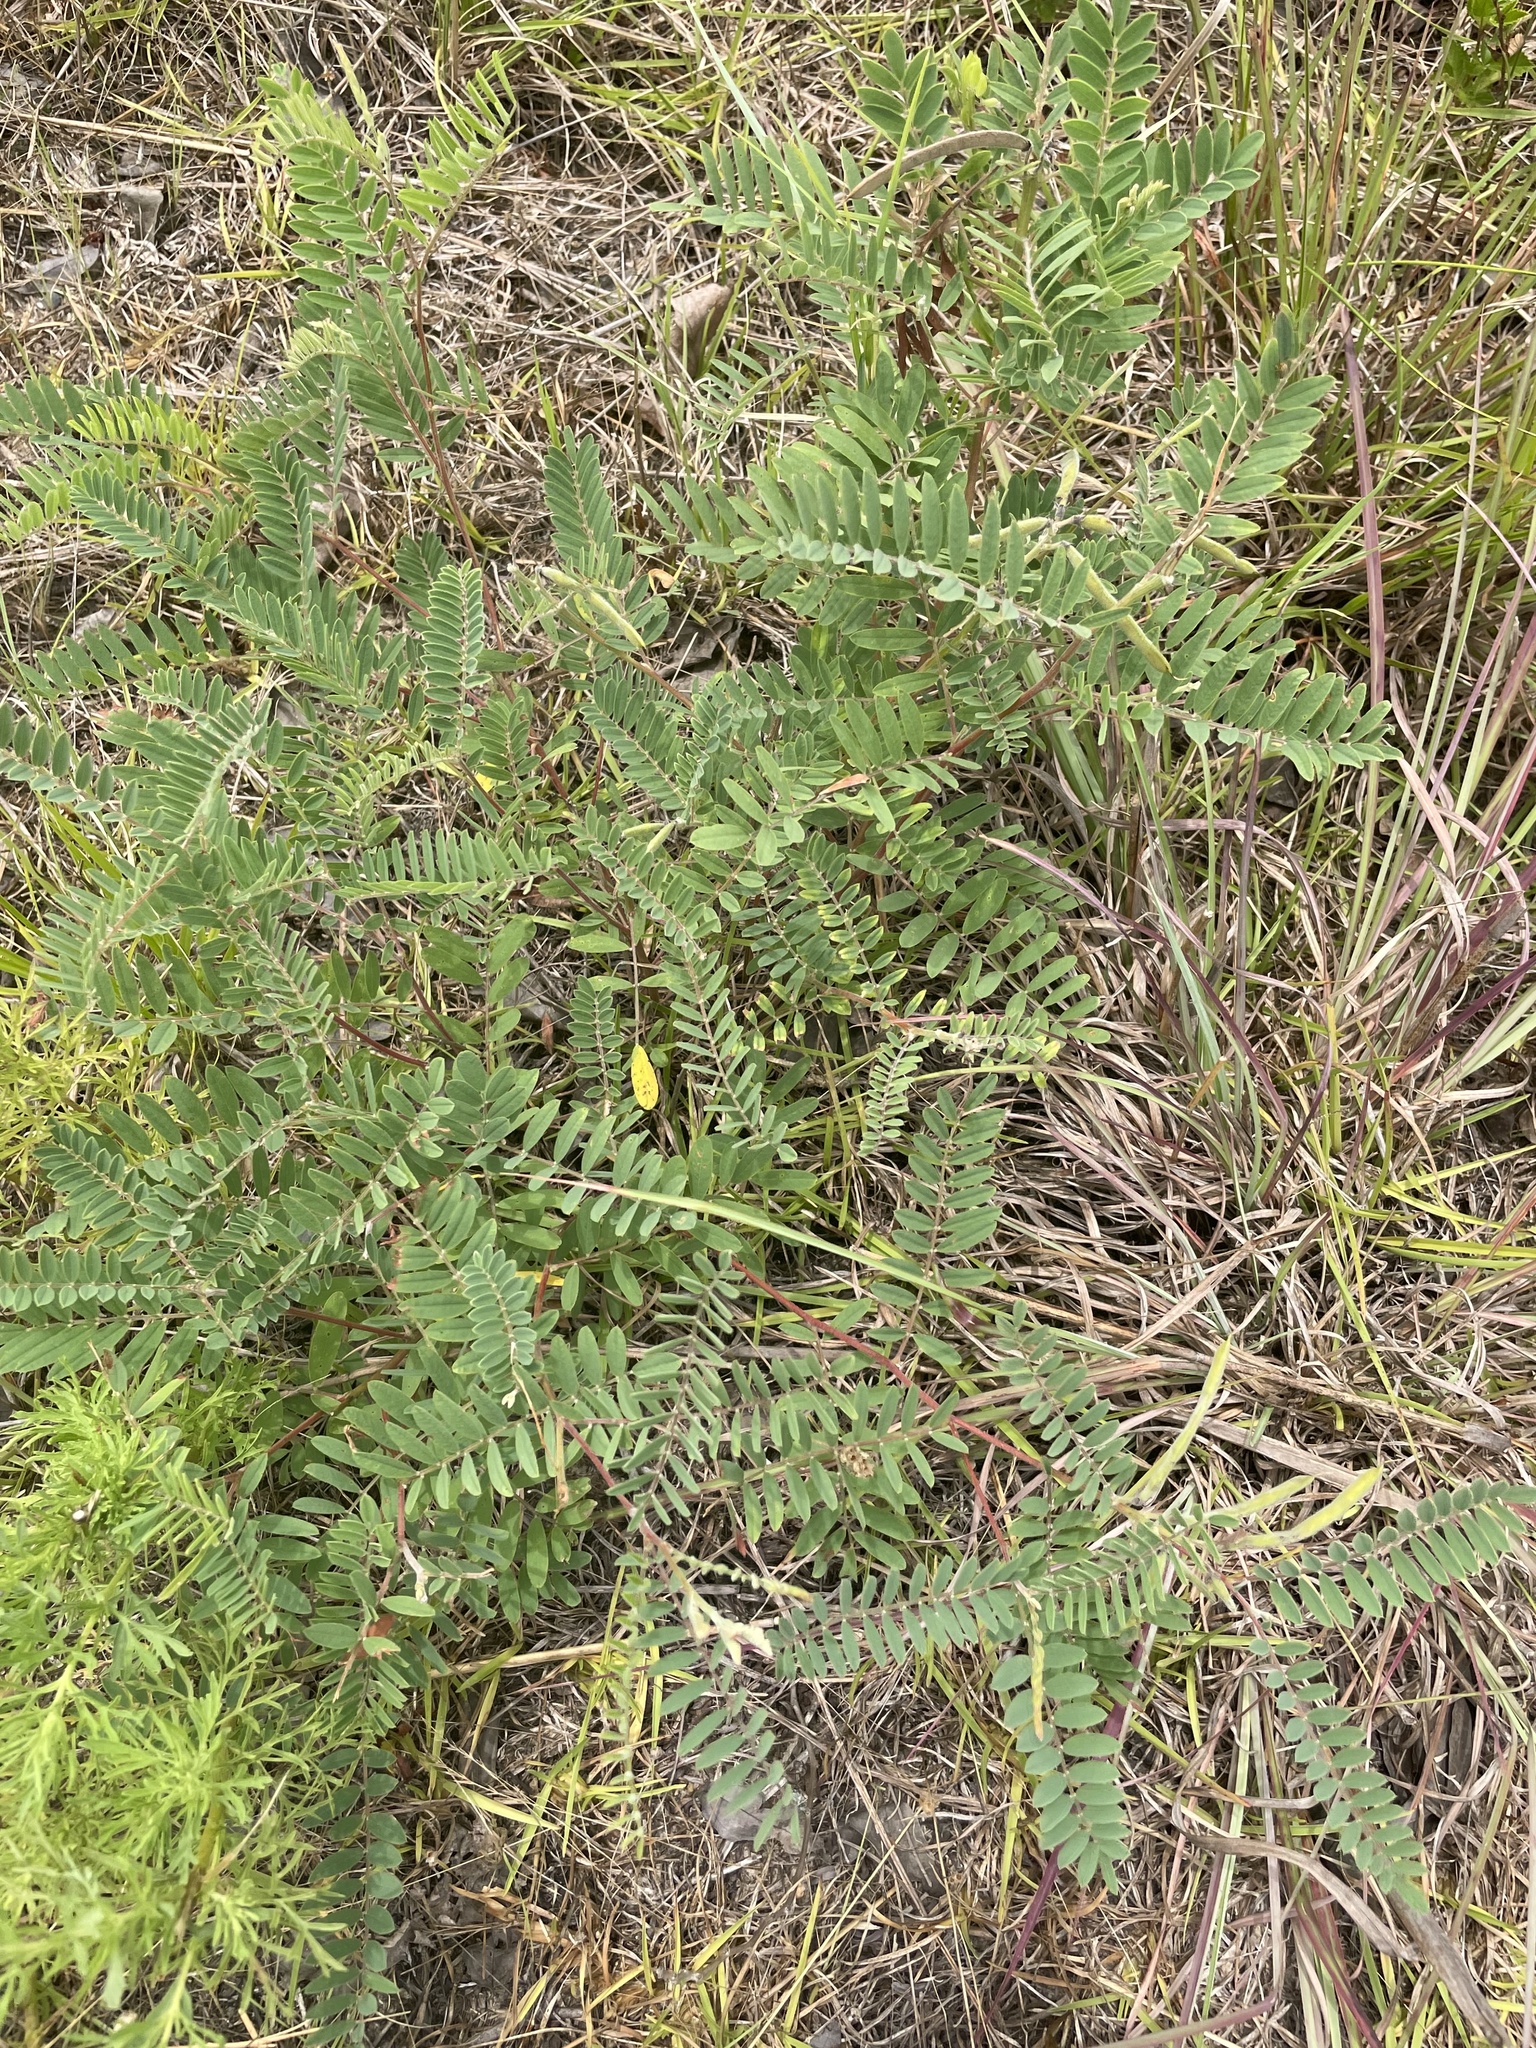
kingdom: Plantae
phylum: Tracheophyta
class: Magnoliopsida
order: Fabales
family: Fabaceae
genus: Tephrosia
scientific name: Tephrosia virginiana
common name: Rabbit-pea
